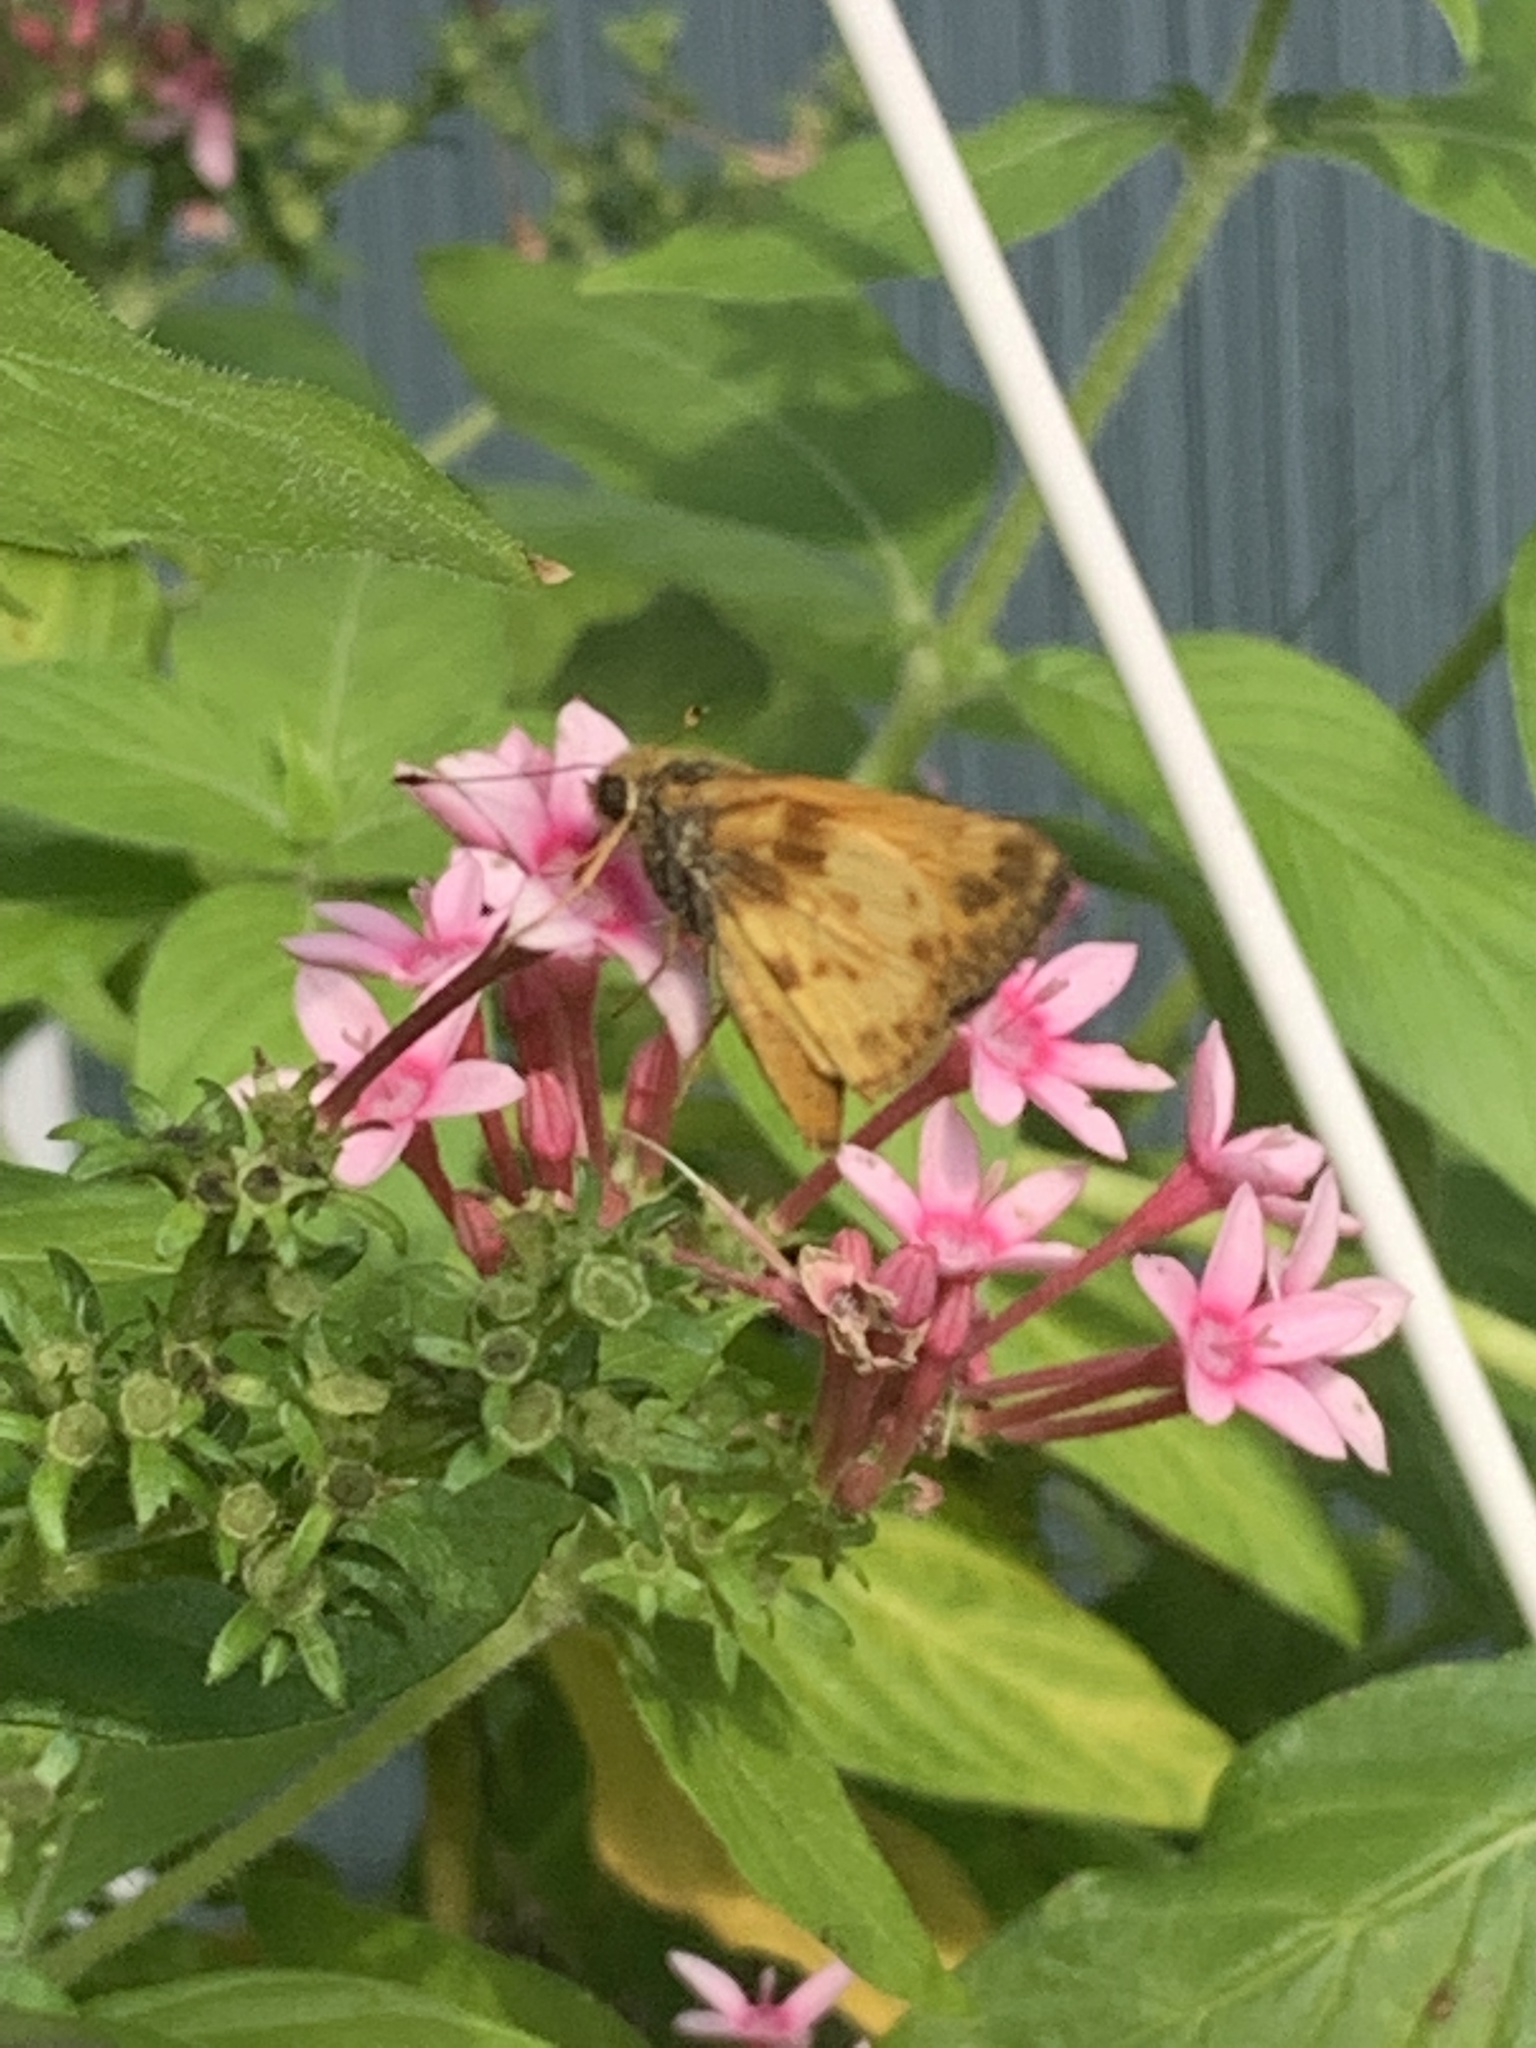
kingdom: Animalia
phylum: Arthropoda
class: Insecta
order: Lepidoptera
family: Hesperiidae
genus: Lon
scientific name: Lon zabulon
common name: Zabulon skipper
